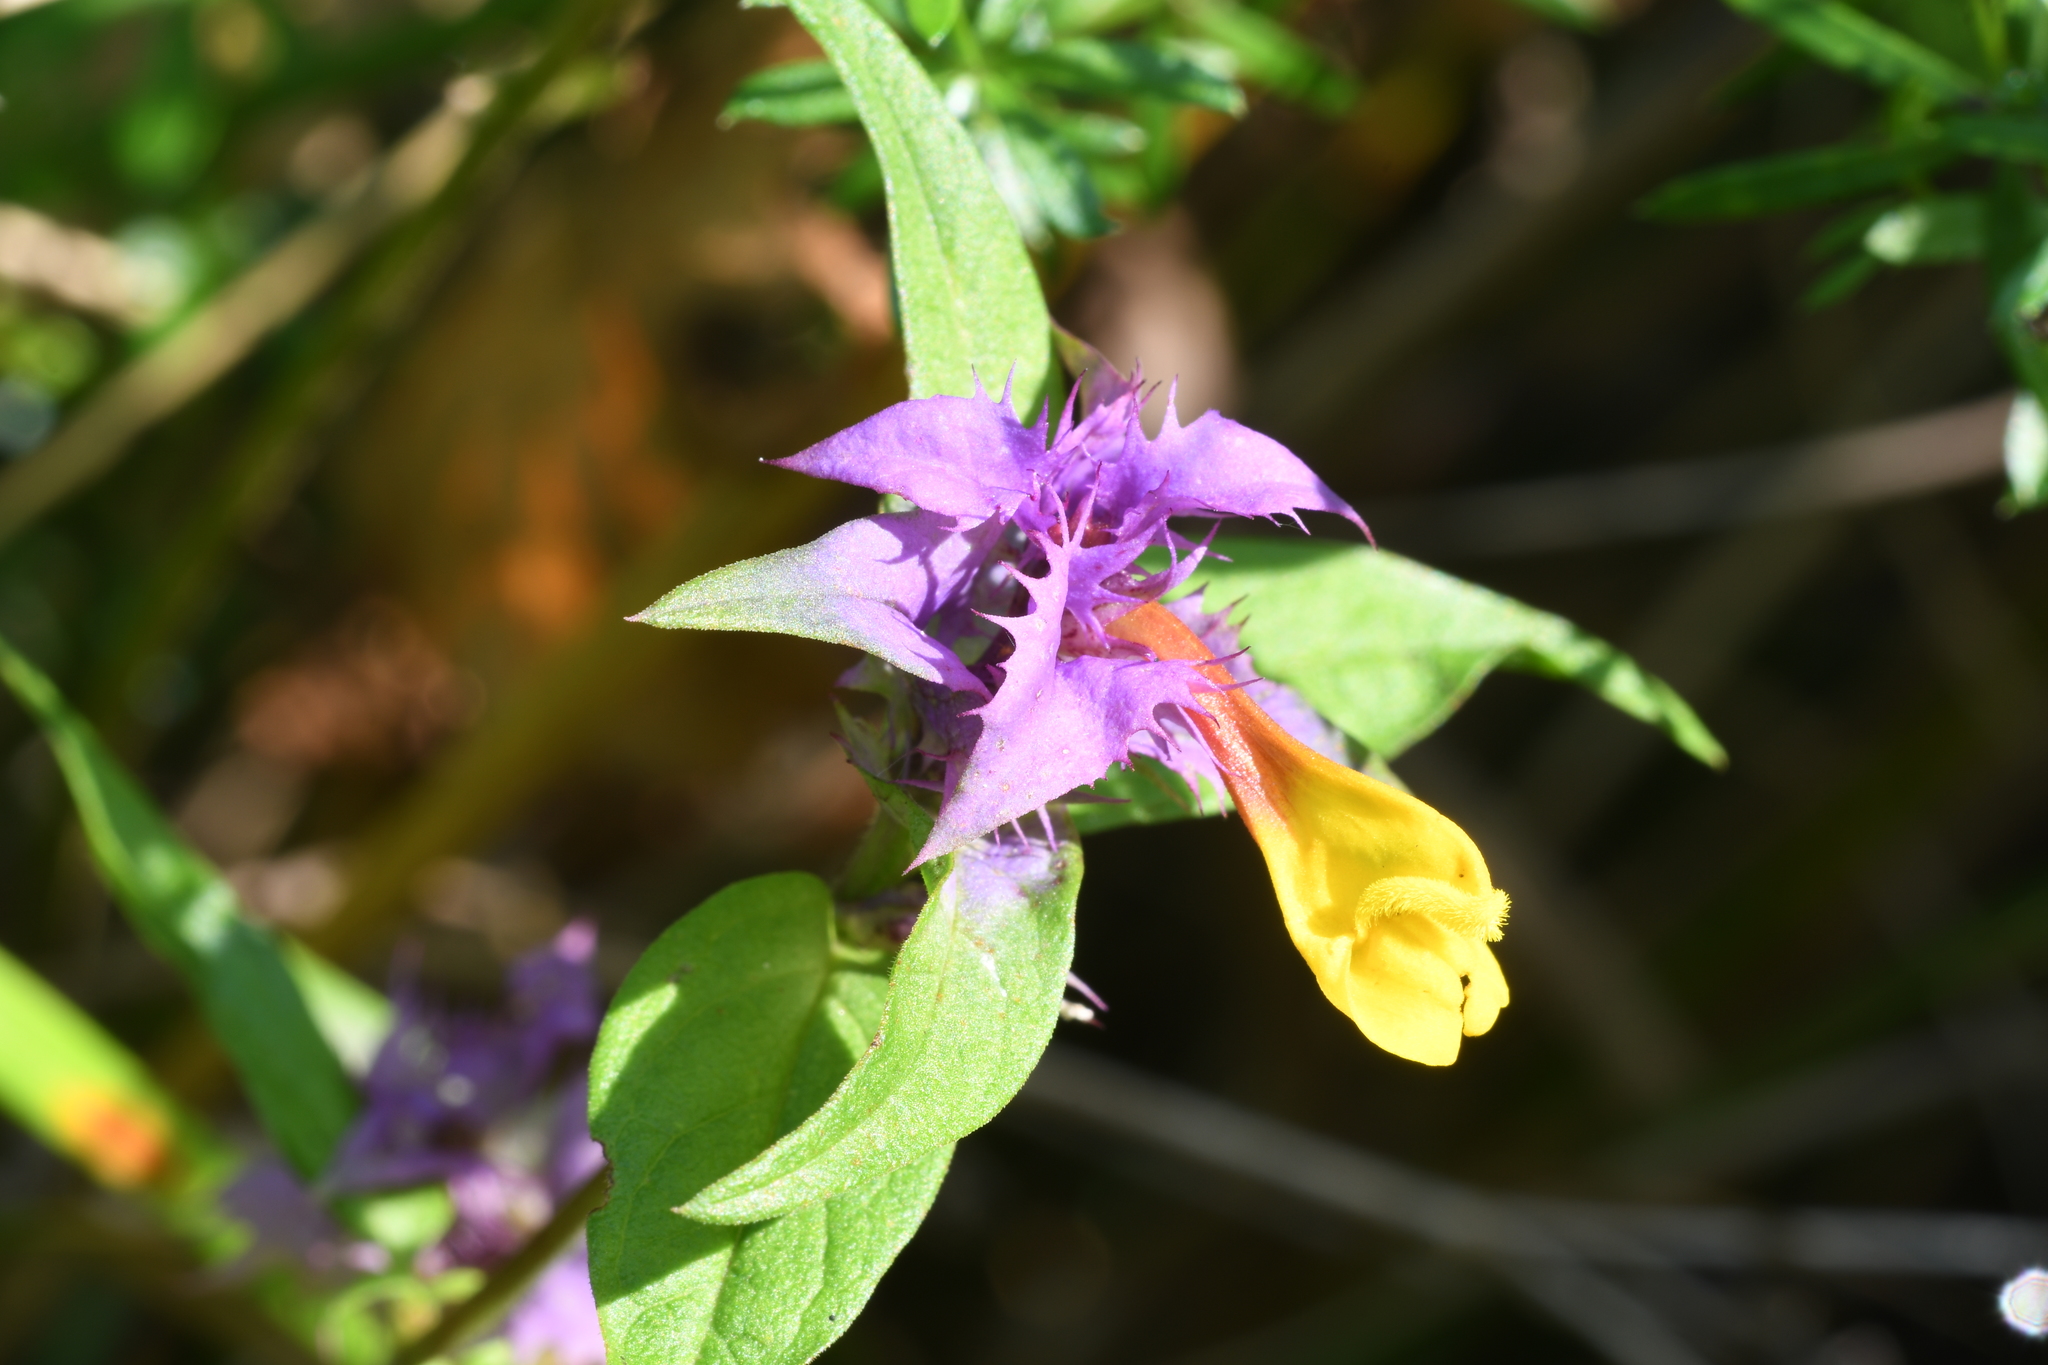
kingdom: Plantae
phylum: Tracheophyta
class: Magnoliopsida
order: Lamiales
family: Orobanchaceae
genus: Melampyrum
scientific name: Melampyrum nemorosum
